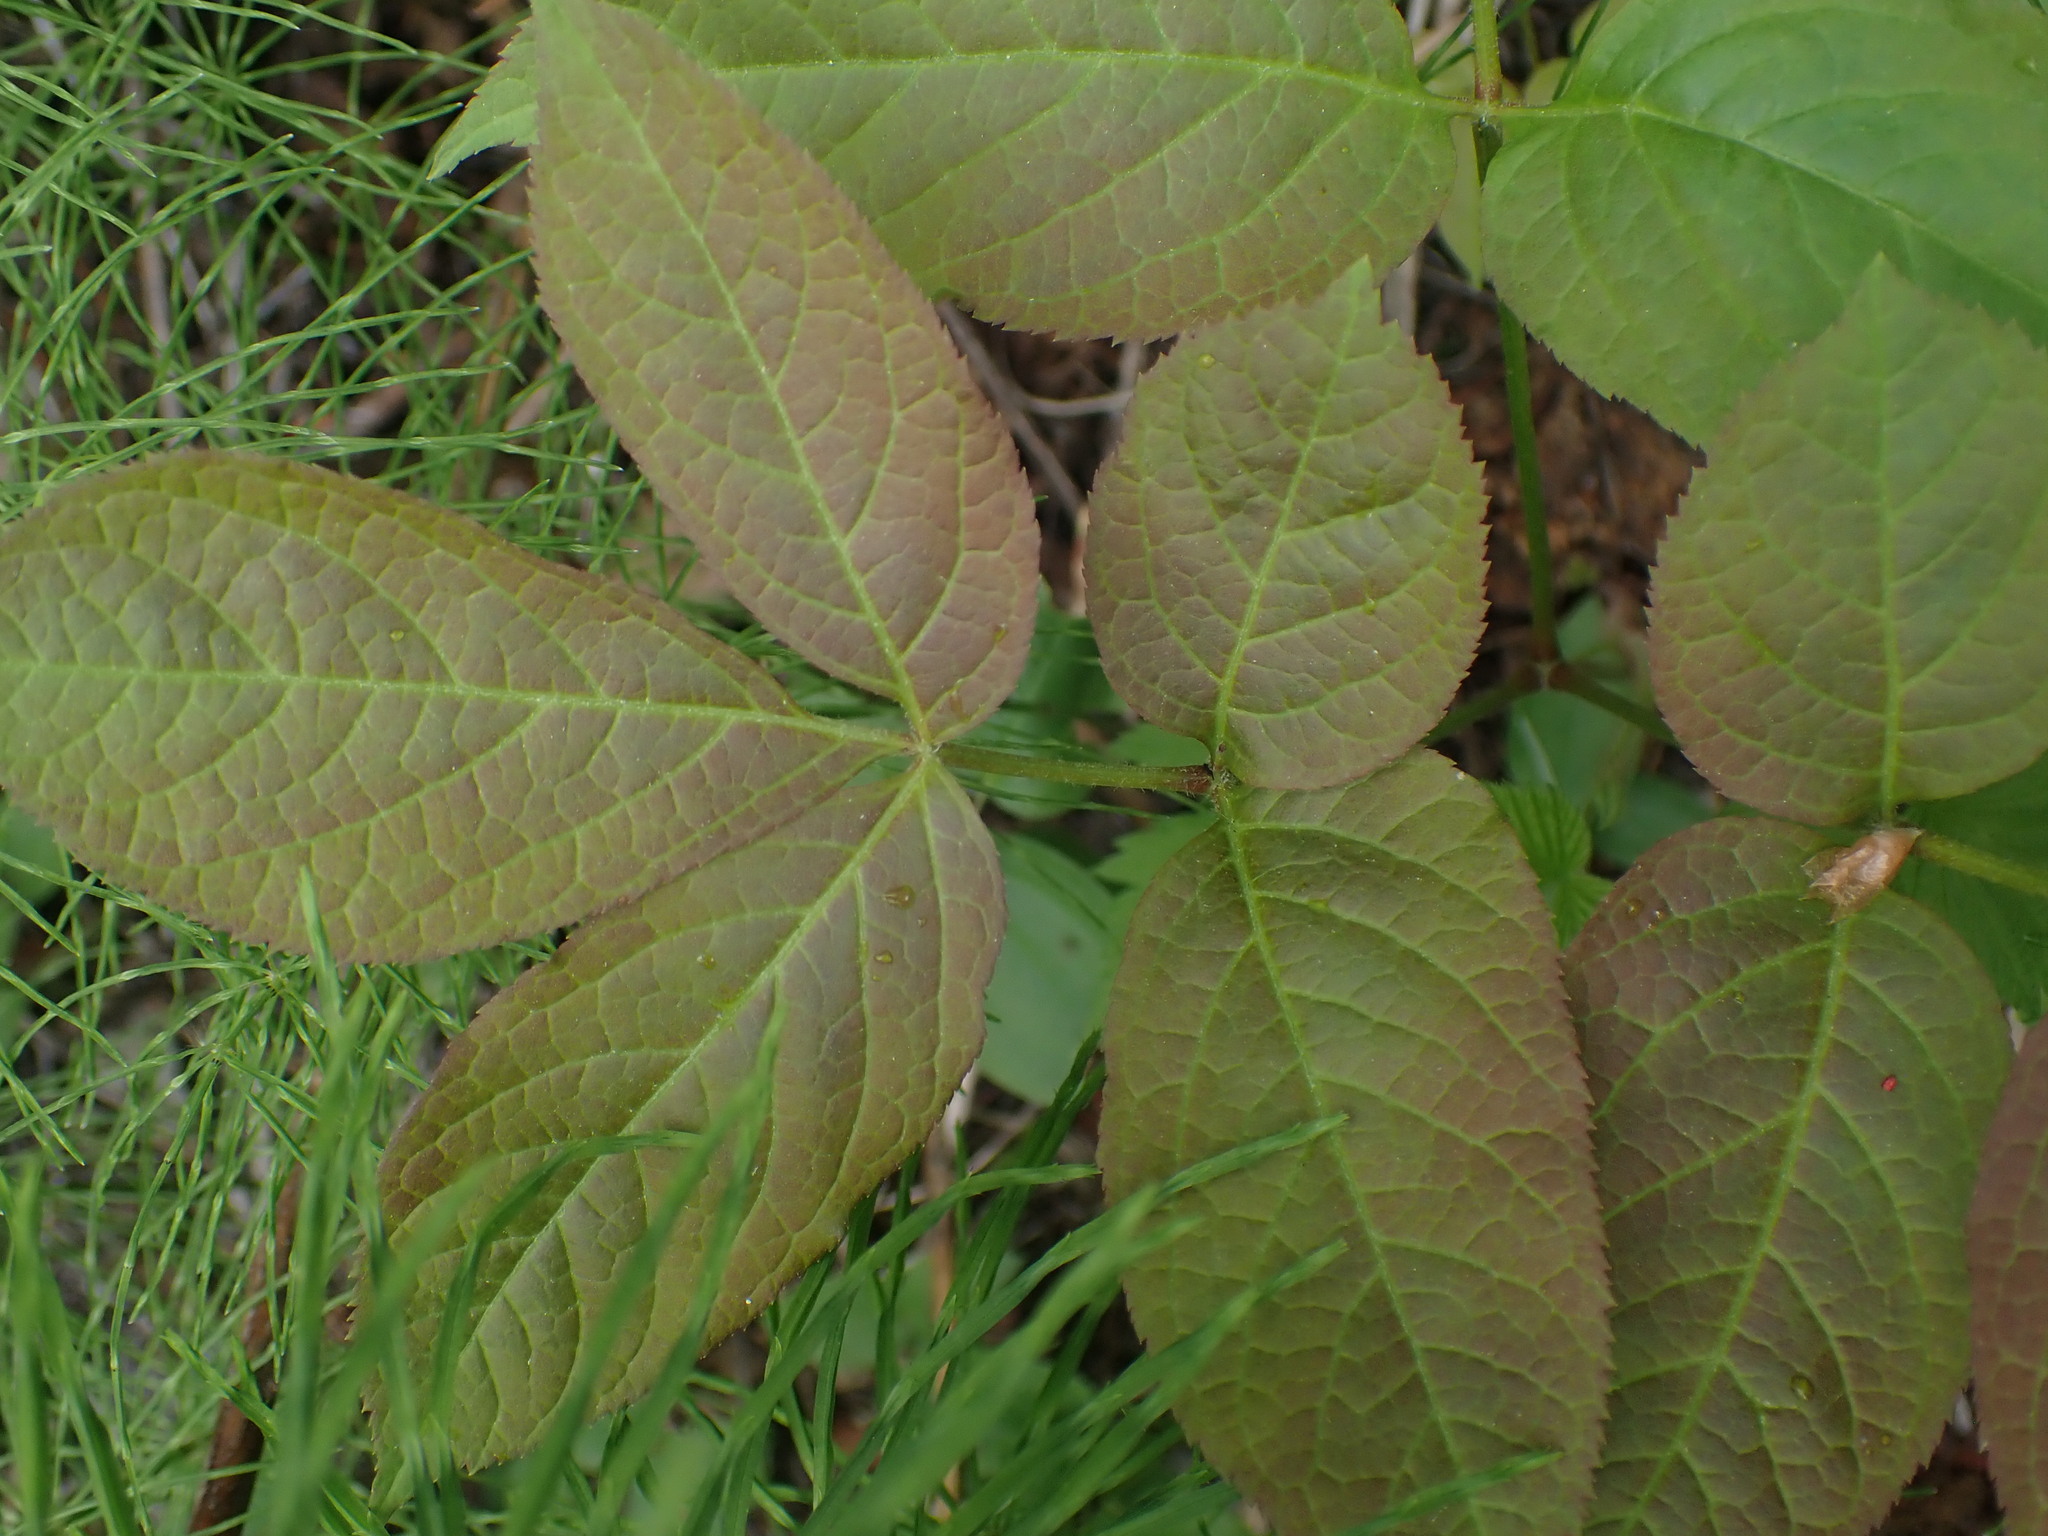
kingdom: Plantae
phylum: Tracheophyta
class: Magnoliopsida
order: Apiales
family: Araliaceae
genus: Aralia
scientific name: Aralia nudicaulis
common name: Wild sarsaparilla
